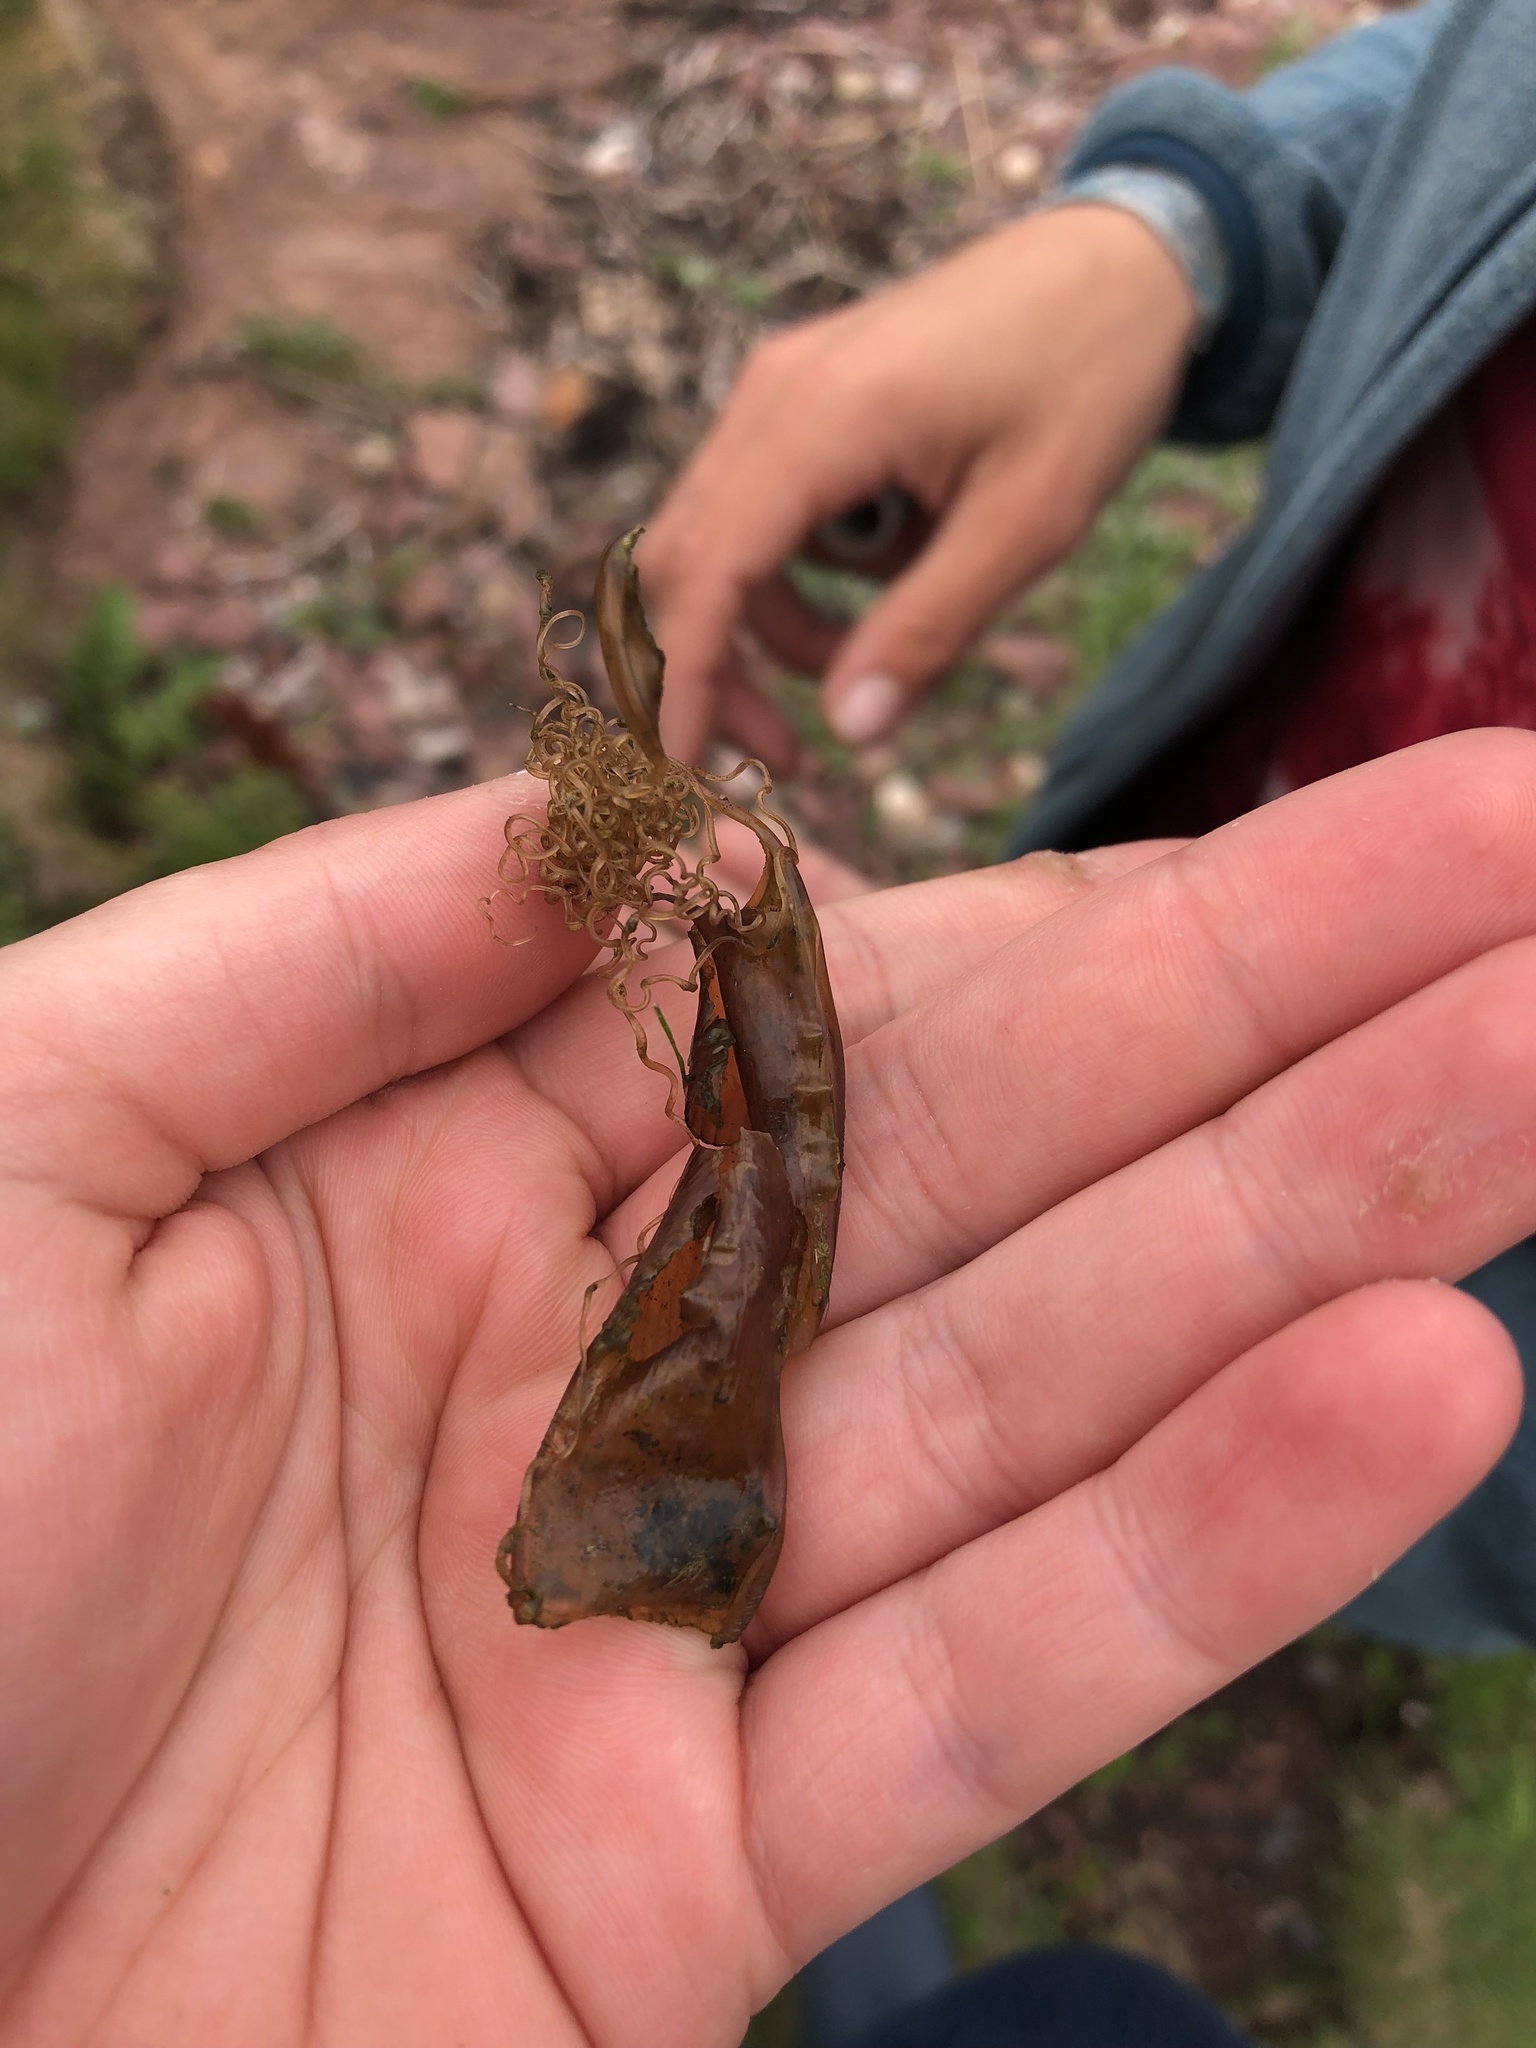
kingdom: Animalia
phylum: Chordata
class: Elasmobranchii
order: Carcharhiniformes
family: Scyliorhinidae
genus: Scyliorhinus
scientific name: Scyliorhinus canicula
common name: Lesser spotted dogfish
